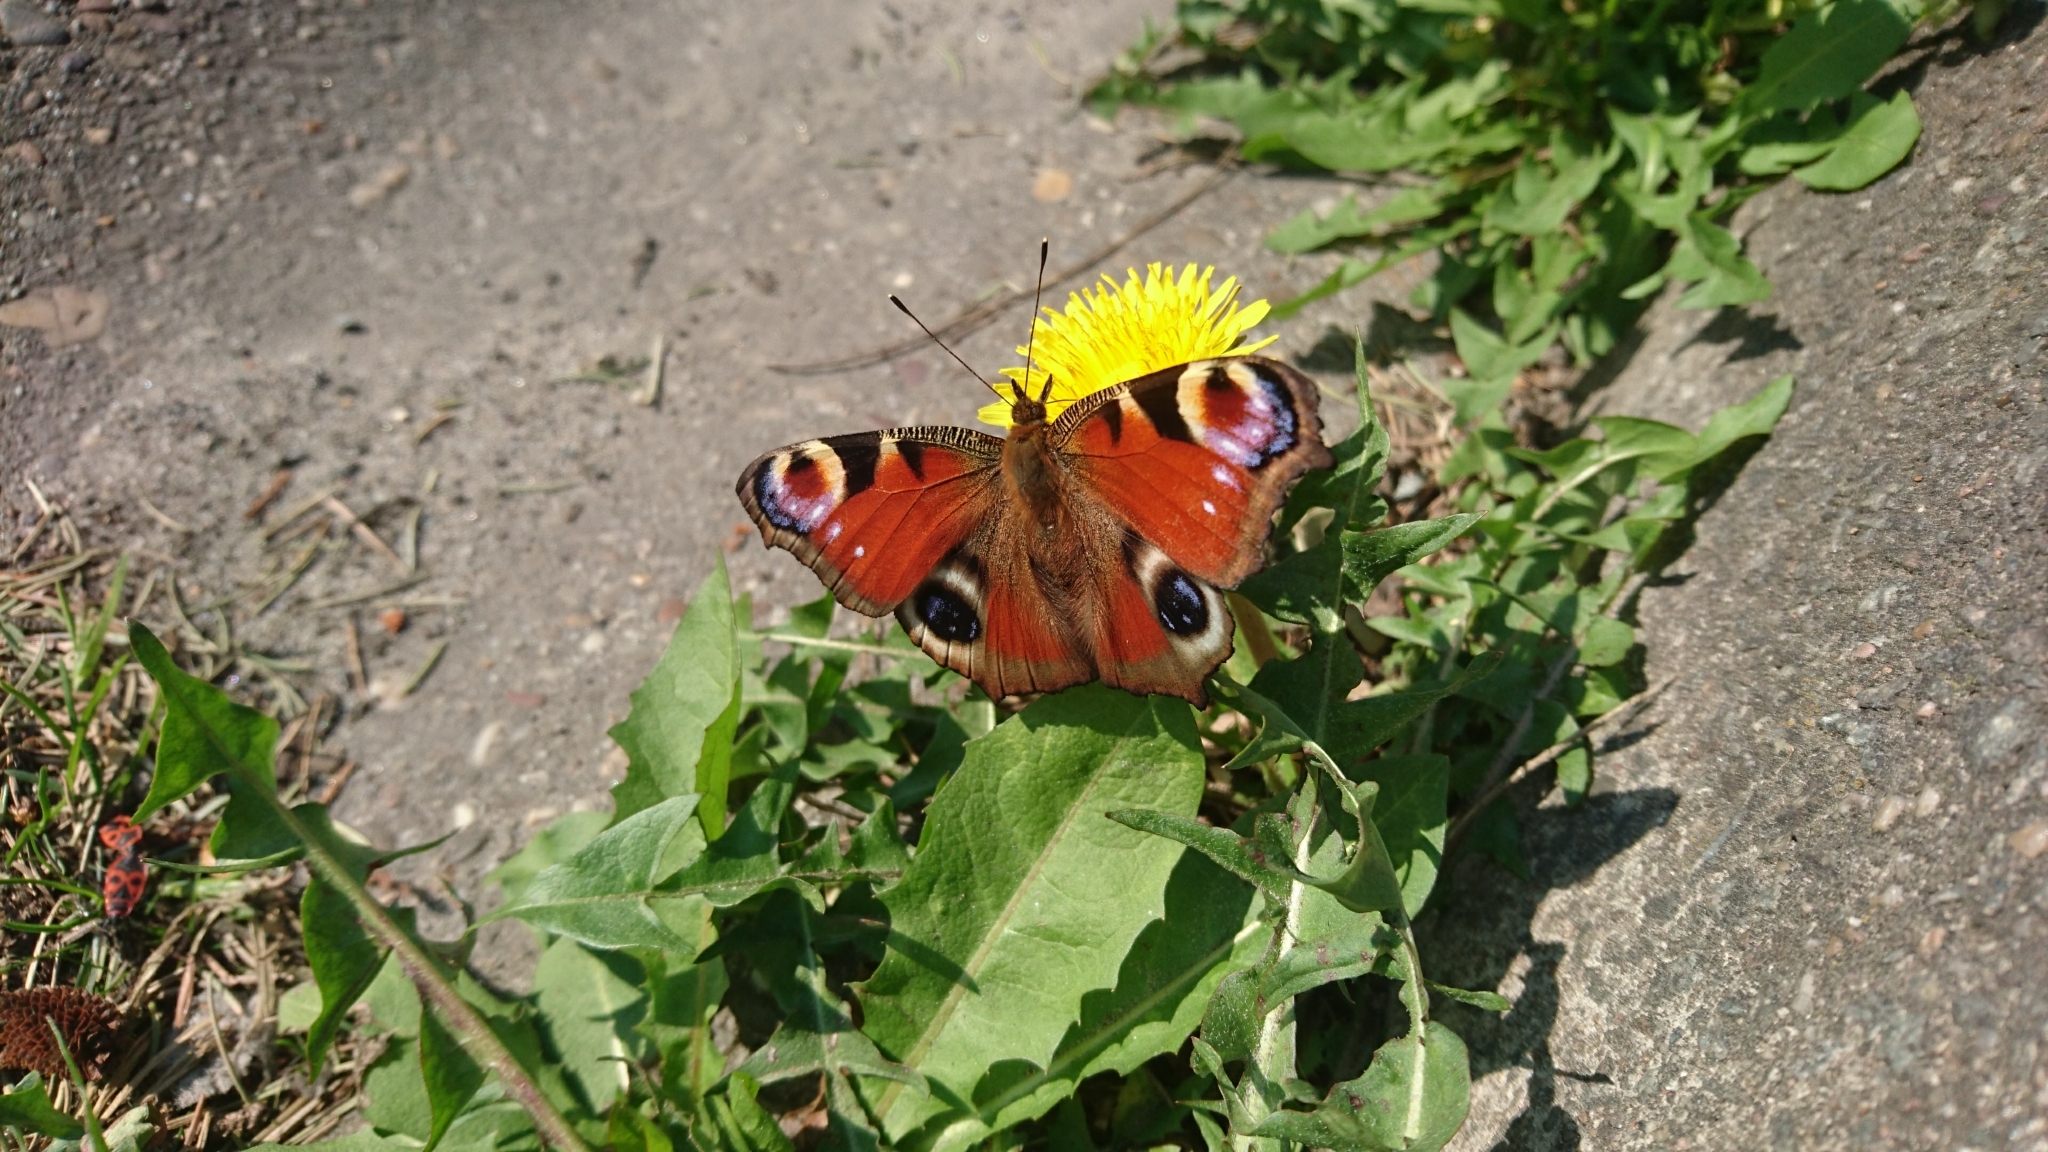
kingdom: Animalia
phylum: Arthropoda
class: Insecta
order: Lepidoptera
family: Nymphalidae
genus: Aglais
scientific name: Aglais io
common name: Peacock
